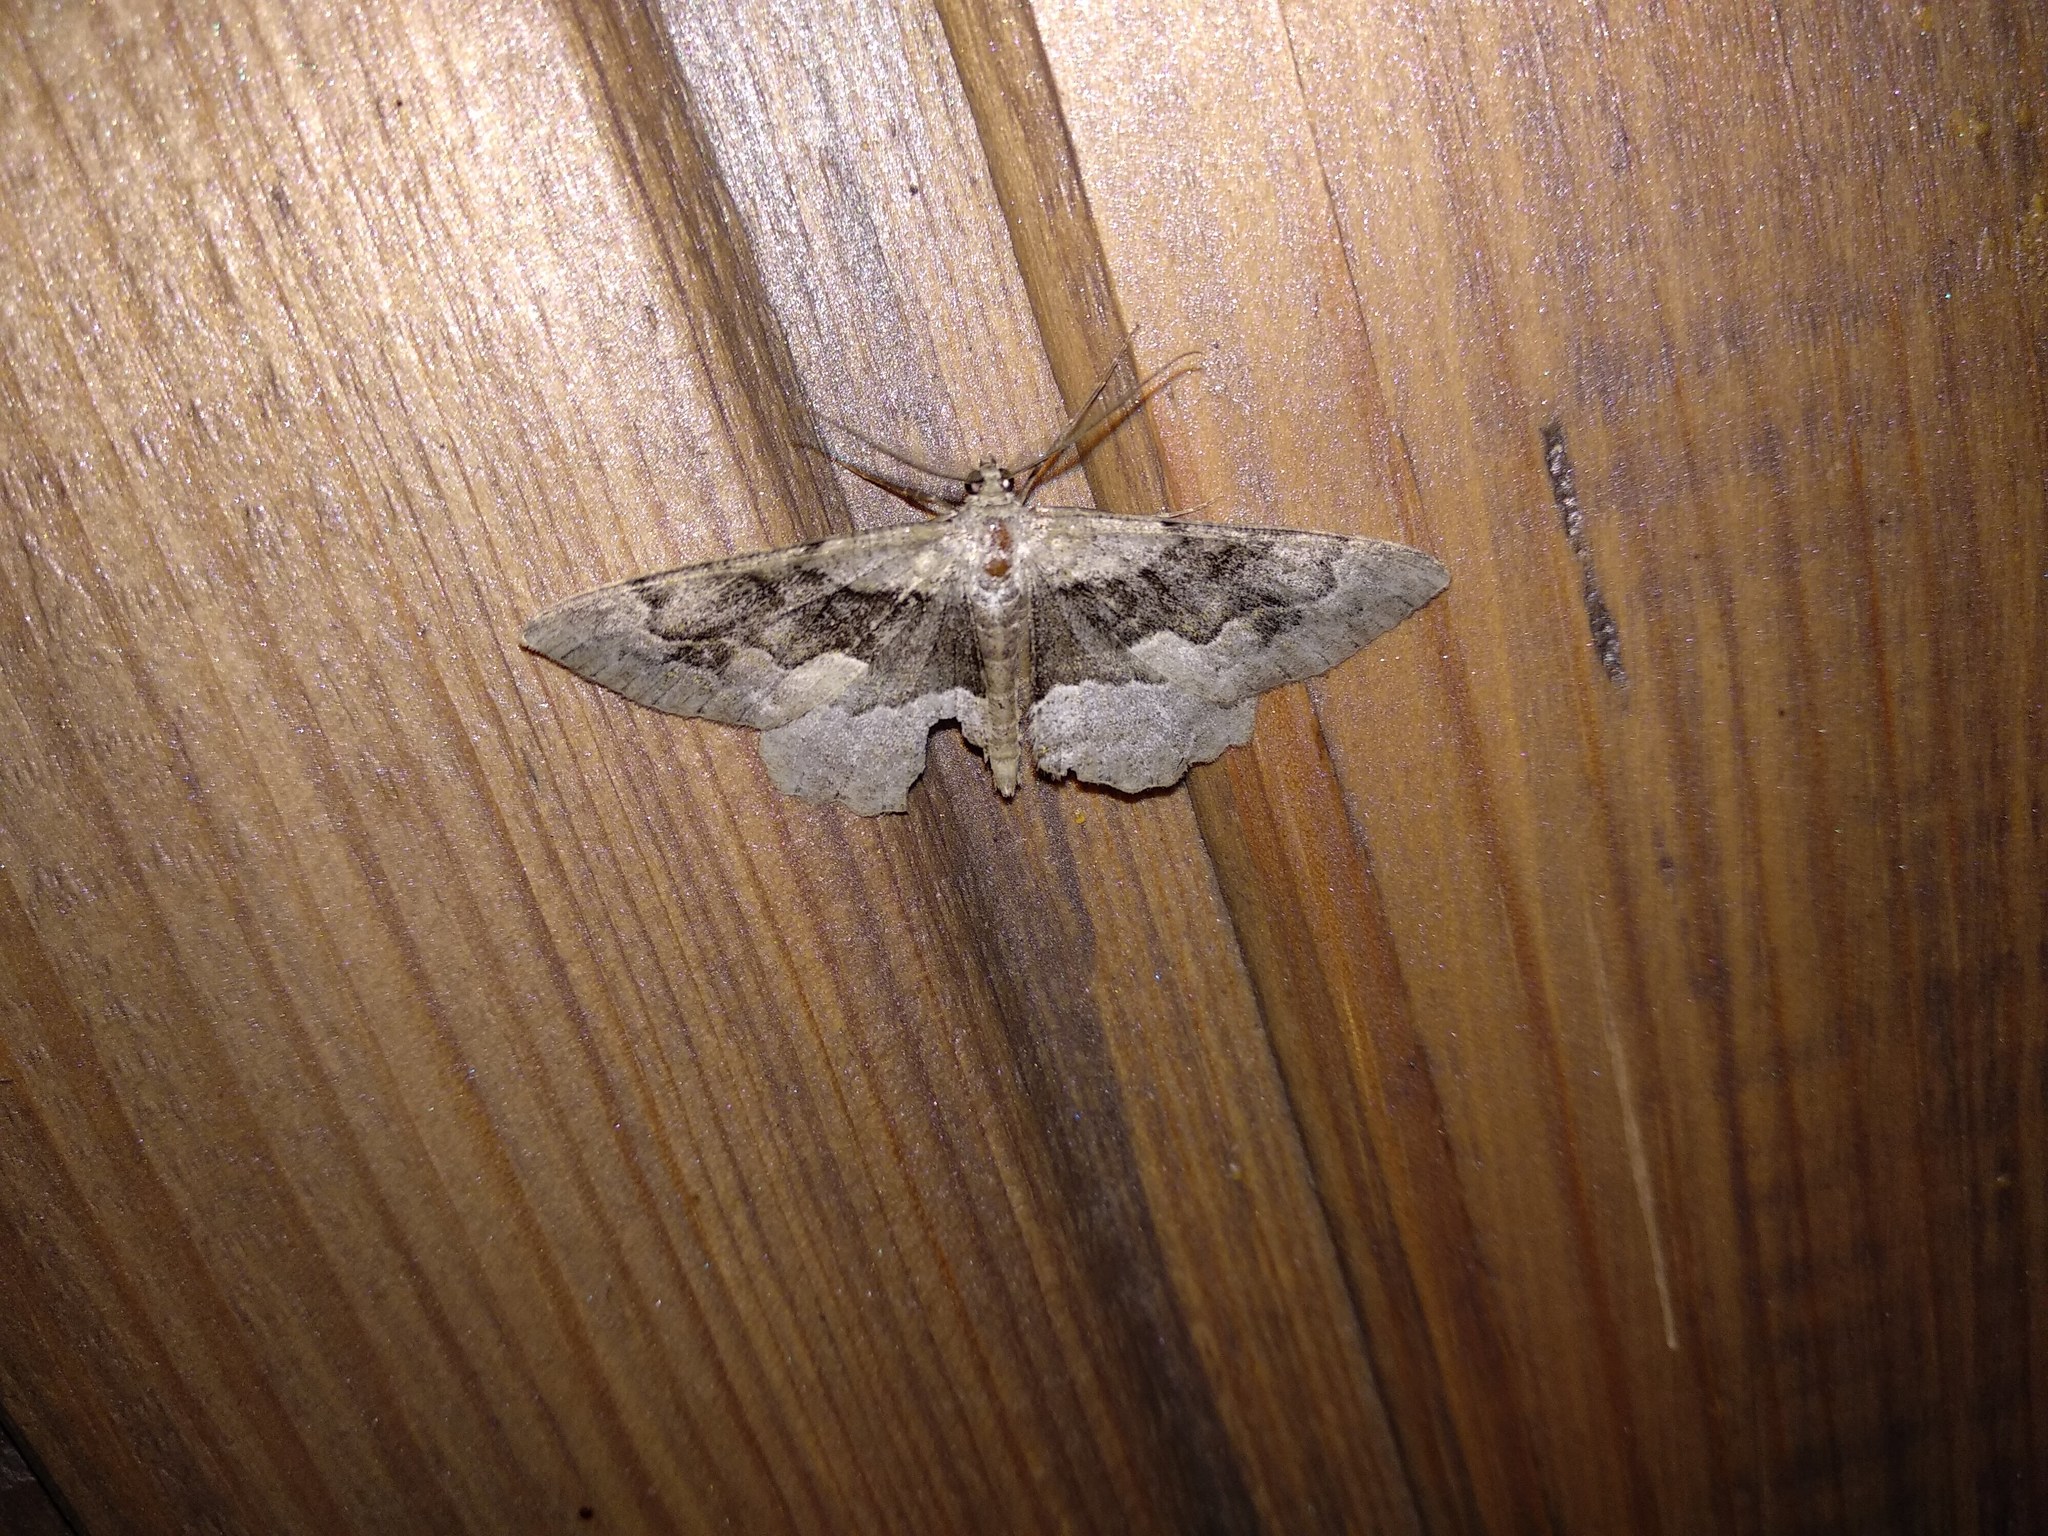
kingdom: Animalia
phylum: Arthropoda
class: Insecta
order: Lepidoptera
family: Geometridae
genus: Alcis
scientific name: Alcis repandata
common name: Mottled beauty
